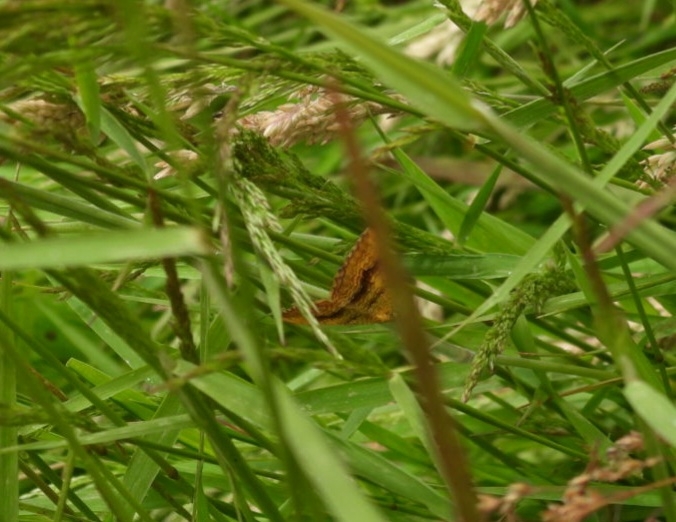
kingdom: Animalia
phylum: Arthropoda
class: Insecta
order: Lepidoptera
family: Geometridae
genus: Camptogramma
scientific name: Camptogramma bilineata
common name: Yellow shell
